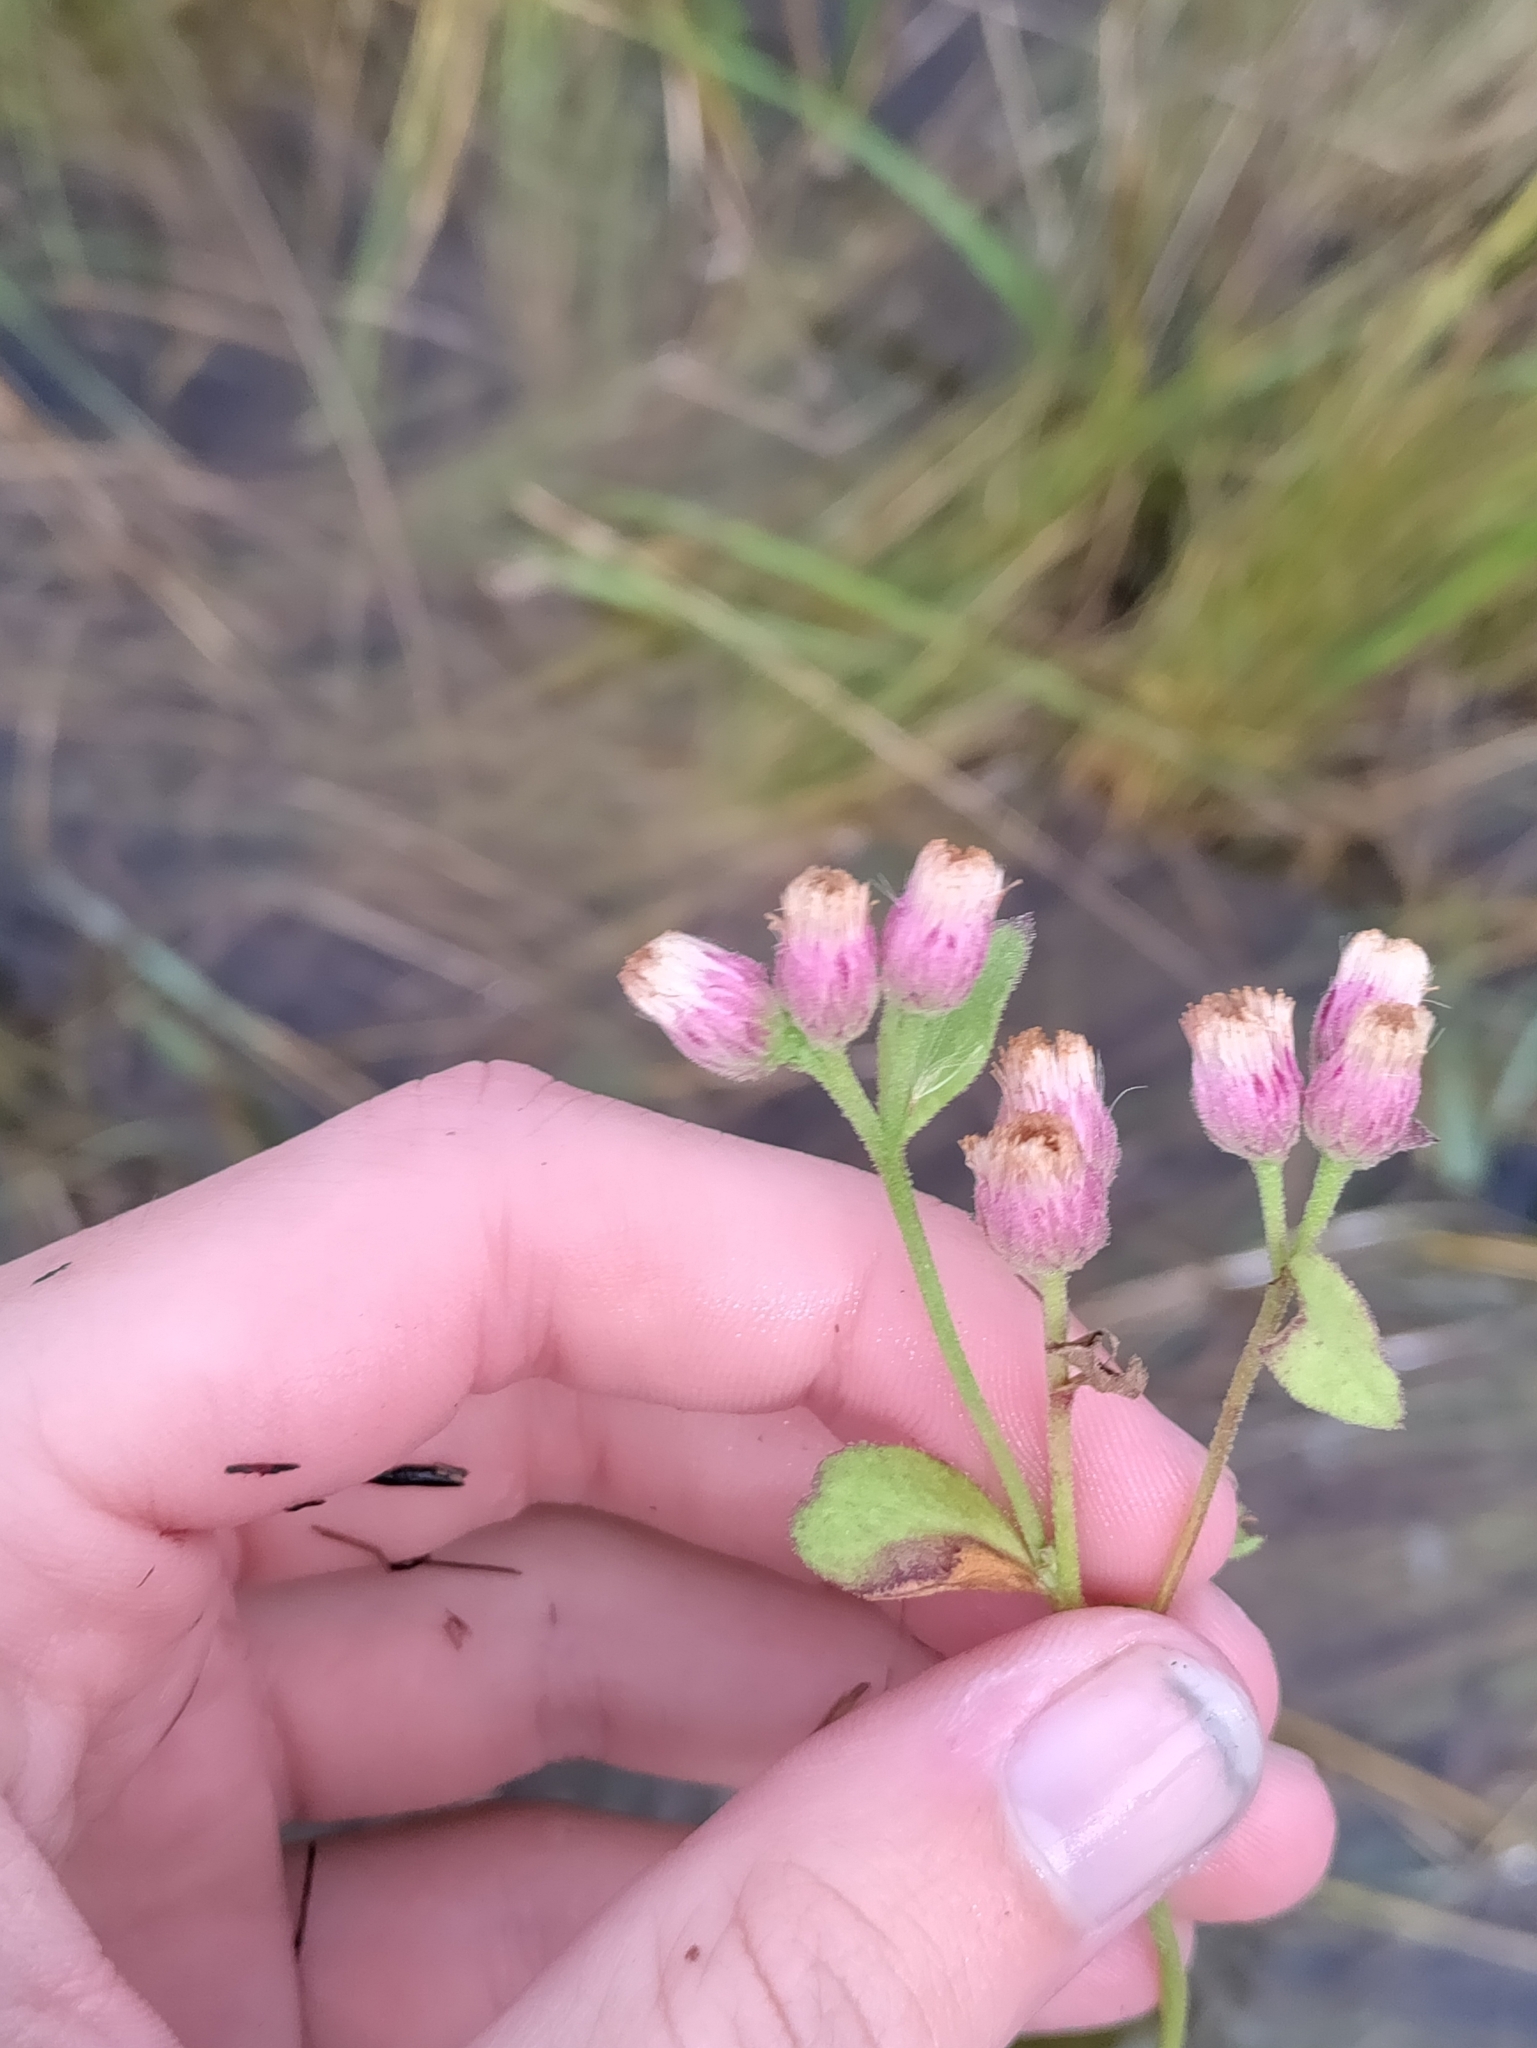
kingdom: Plantae
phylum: Tracheophyta
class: Magnoliopsida
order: Asterales
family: Asteraceae
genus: Pluchea
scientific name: Pluchea odorata
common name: Saltmarsh fleabane
